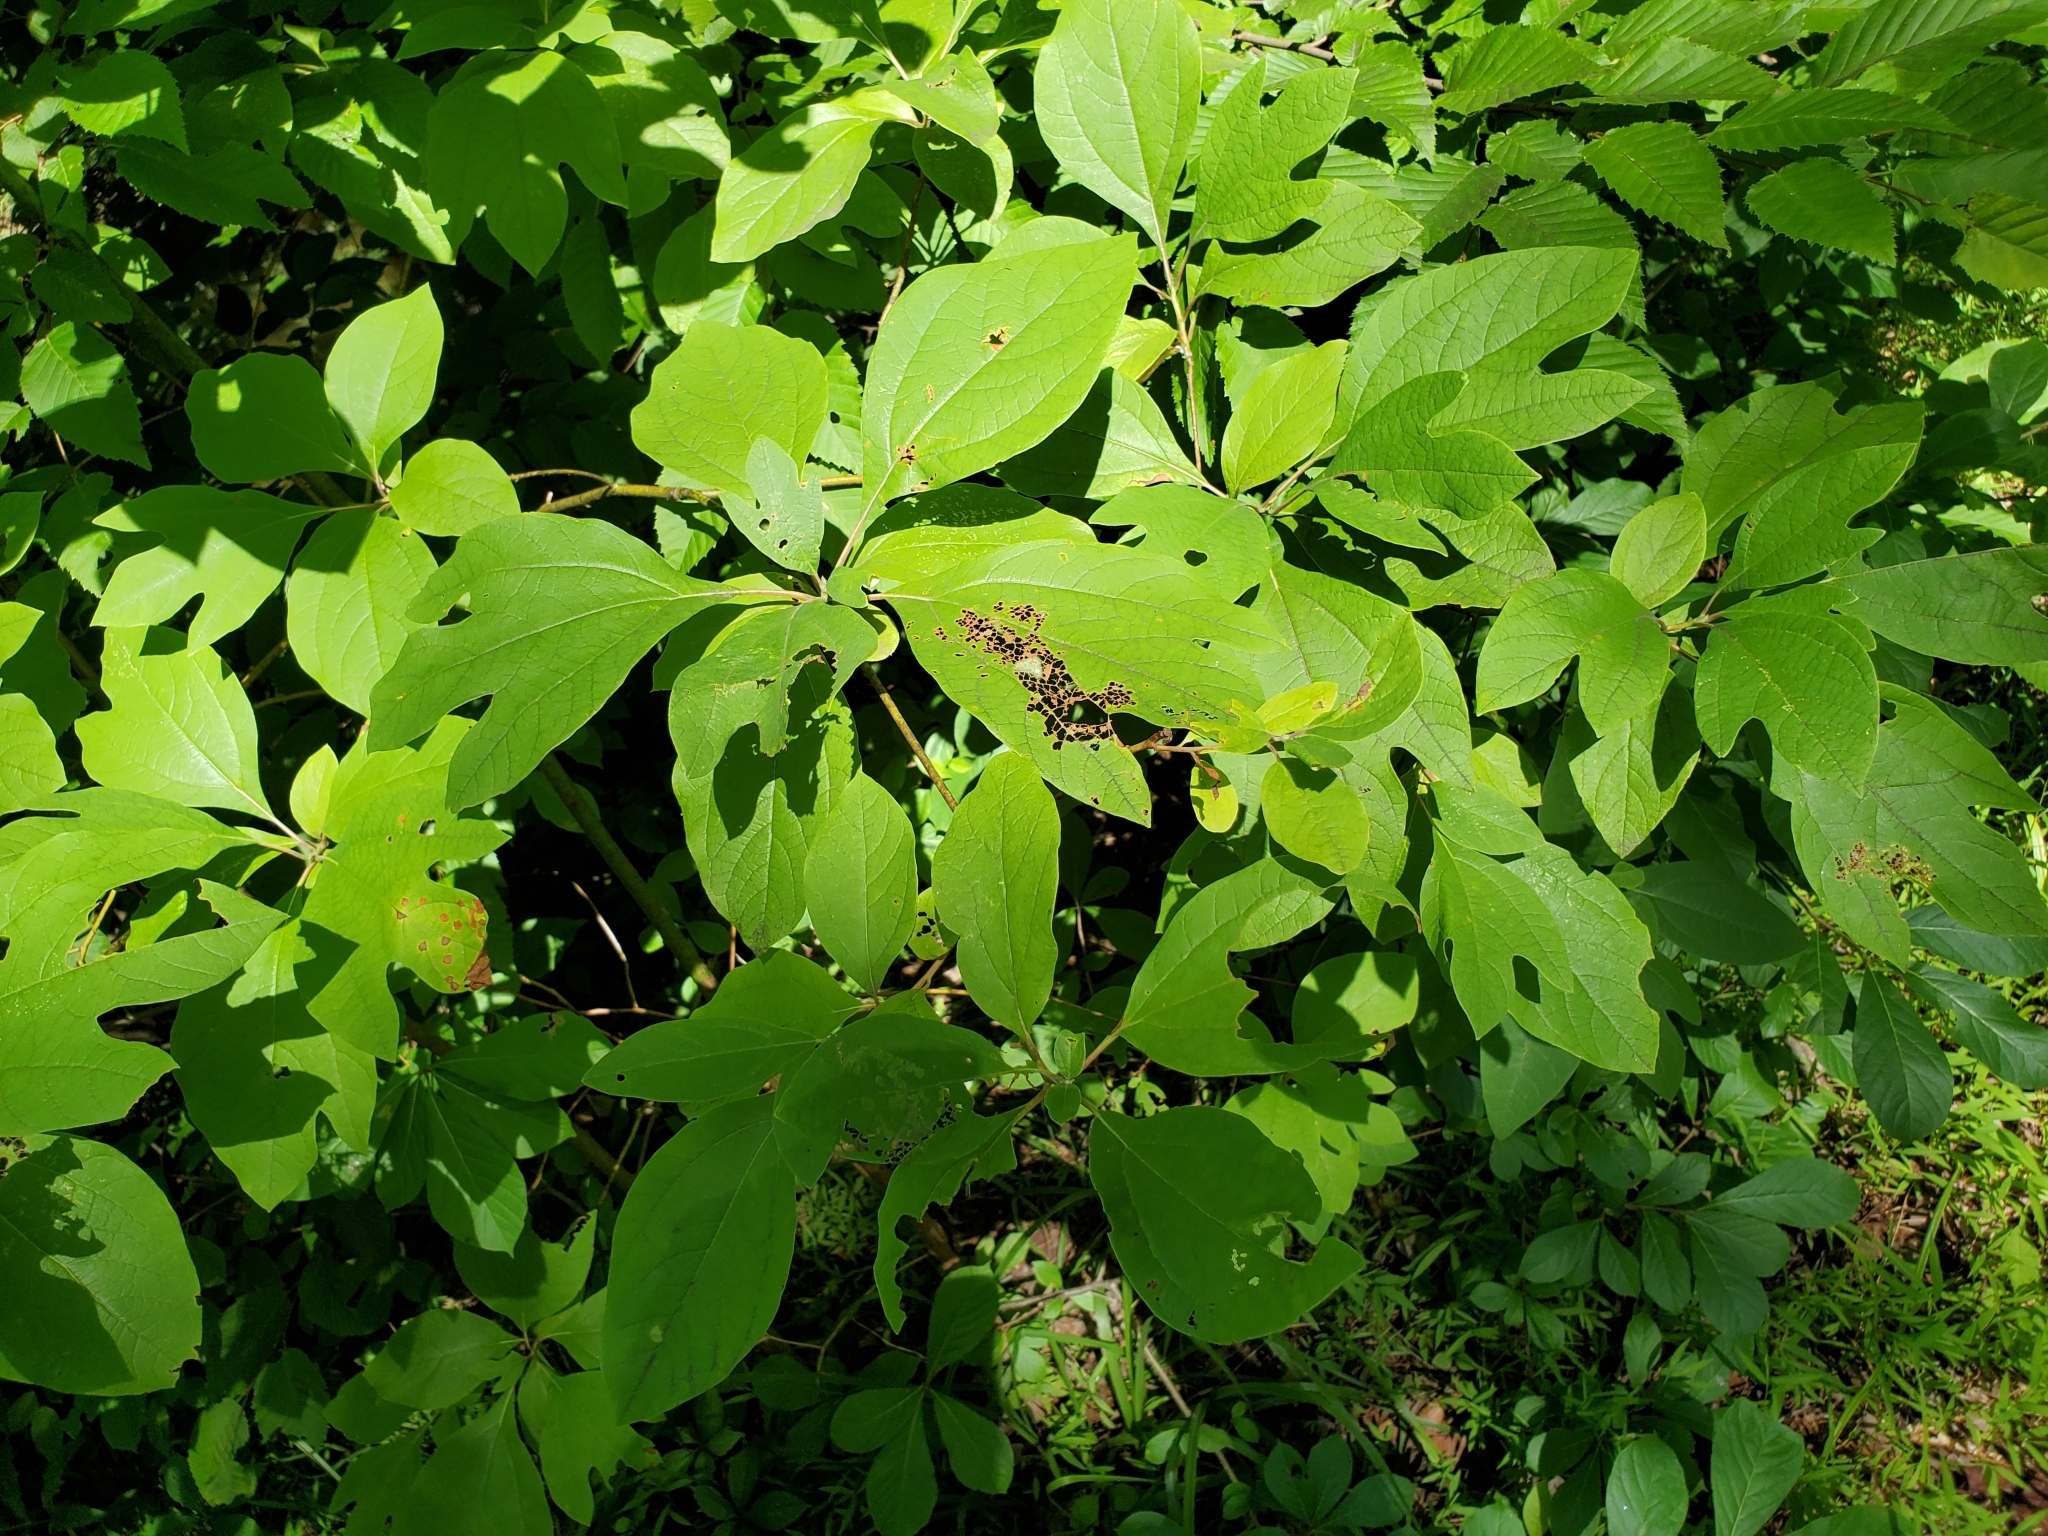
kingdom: Plantae
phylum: Tracheophyta
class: Magnoliopsida
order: Laurales
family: Lauraceae
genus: Sassafras
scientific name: Sassafras albidum
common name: Sassafras
